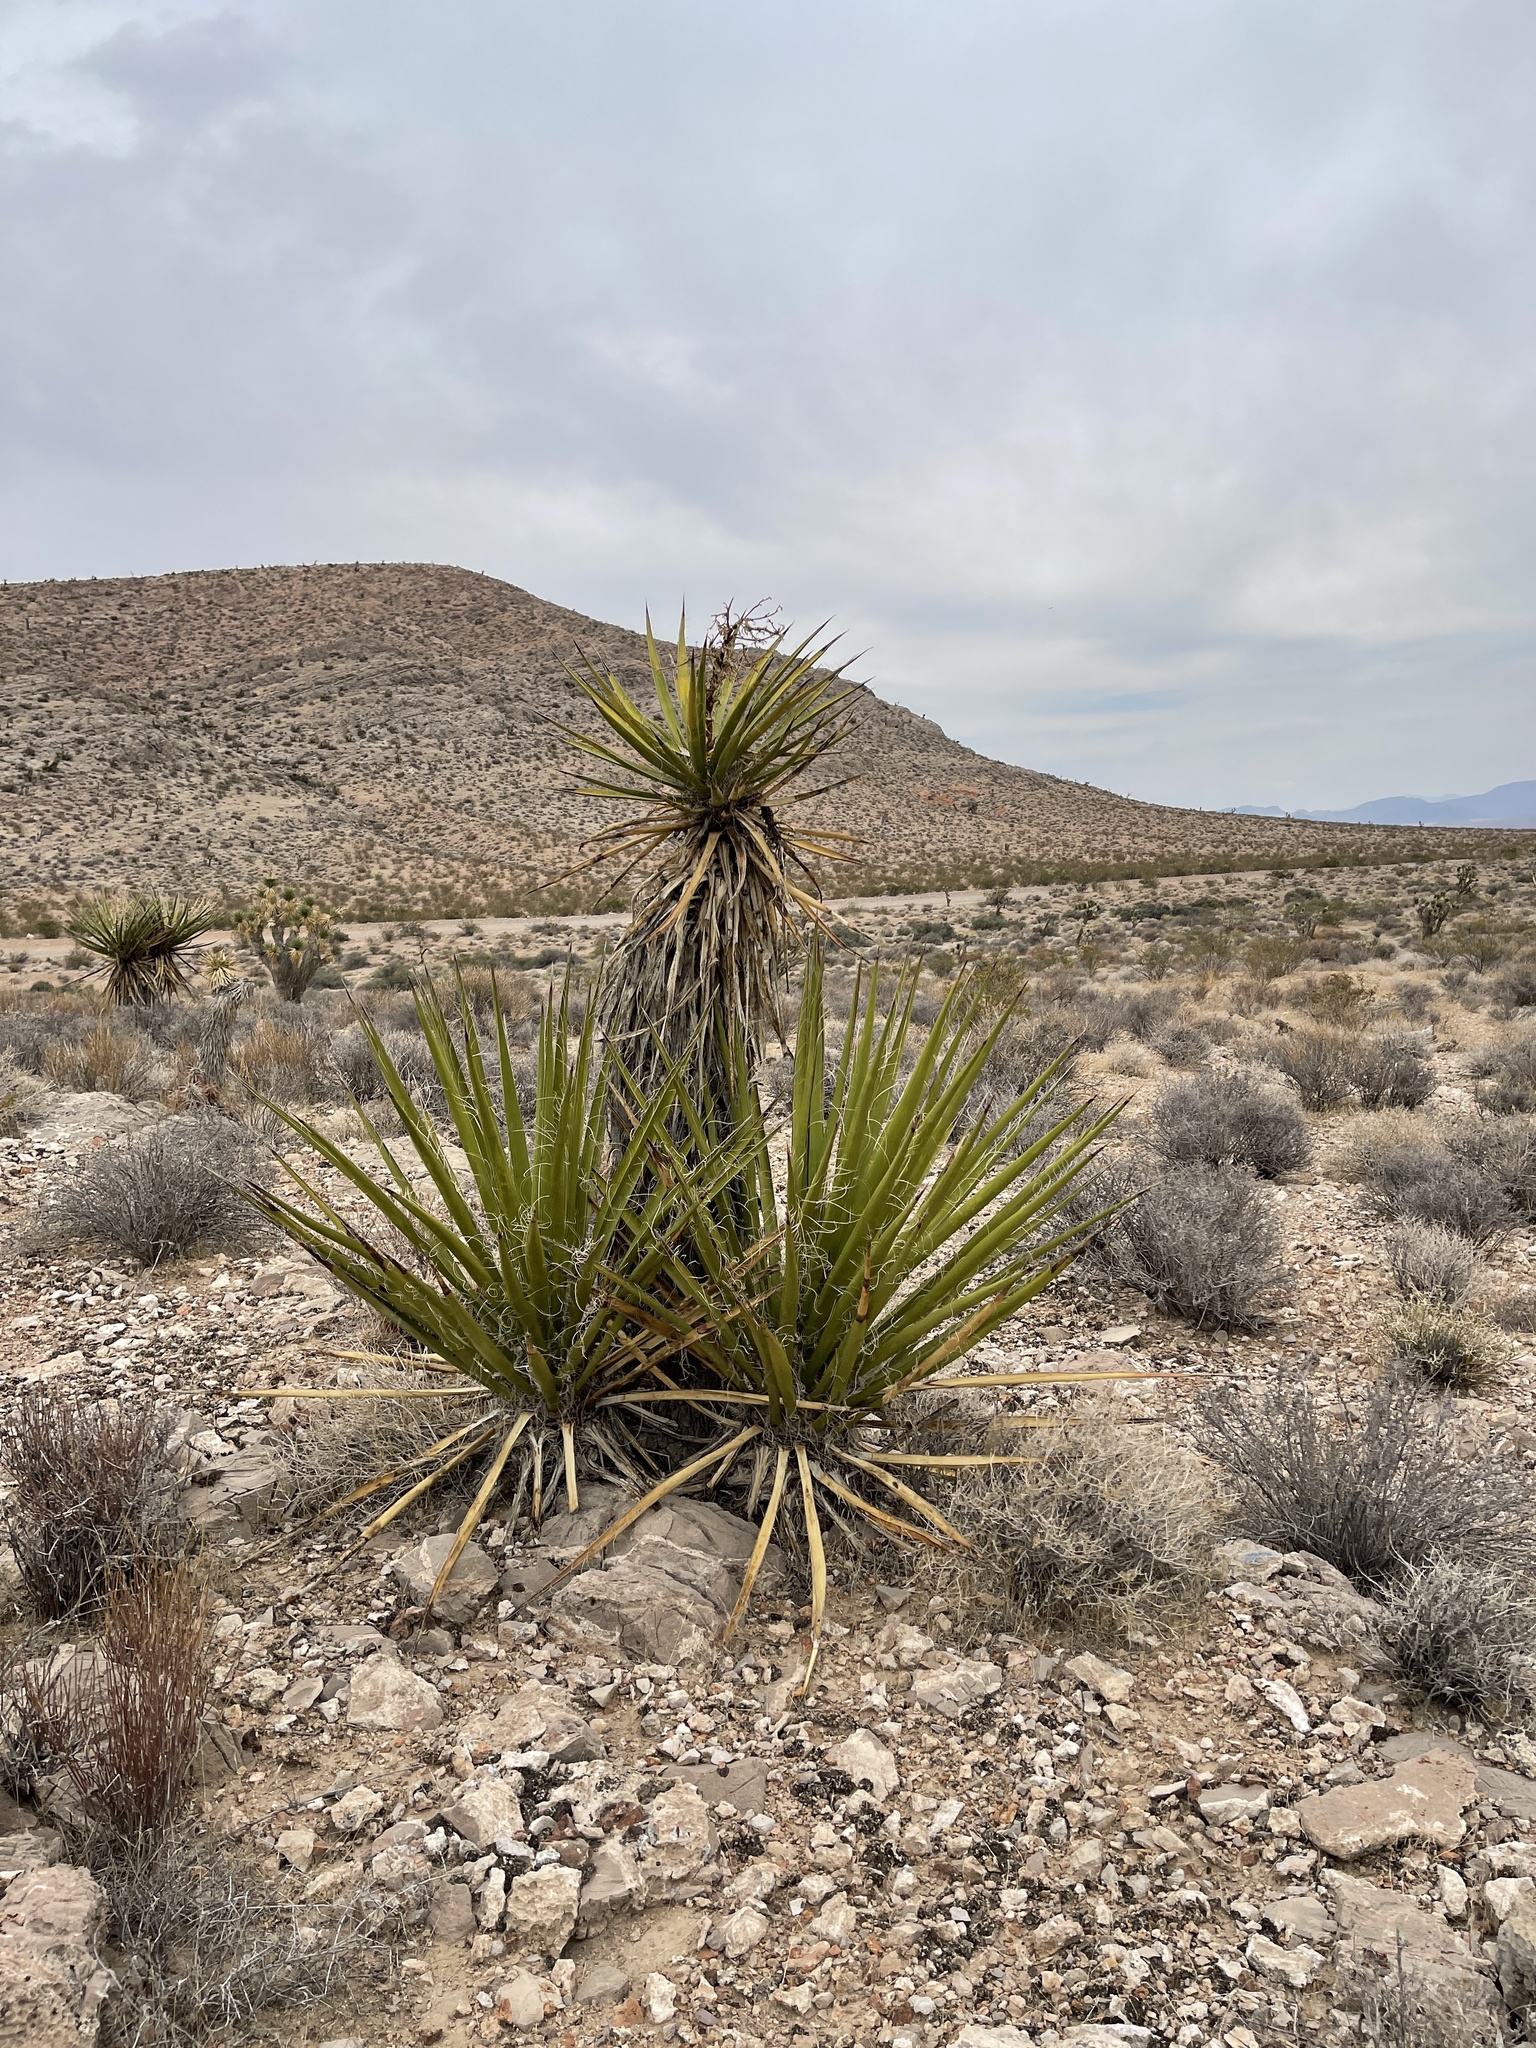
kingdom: Plantae
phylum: Tracheophyta
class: Liliopsida
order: Asparagales
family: Asparagaceae
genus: Yucca
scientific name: Yucca schidigera
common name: Mojave yucca
